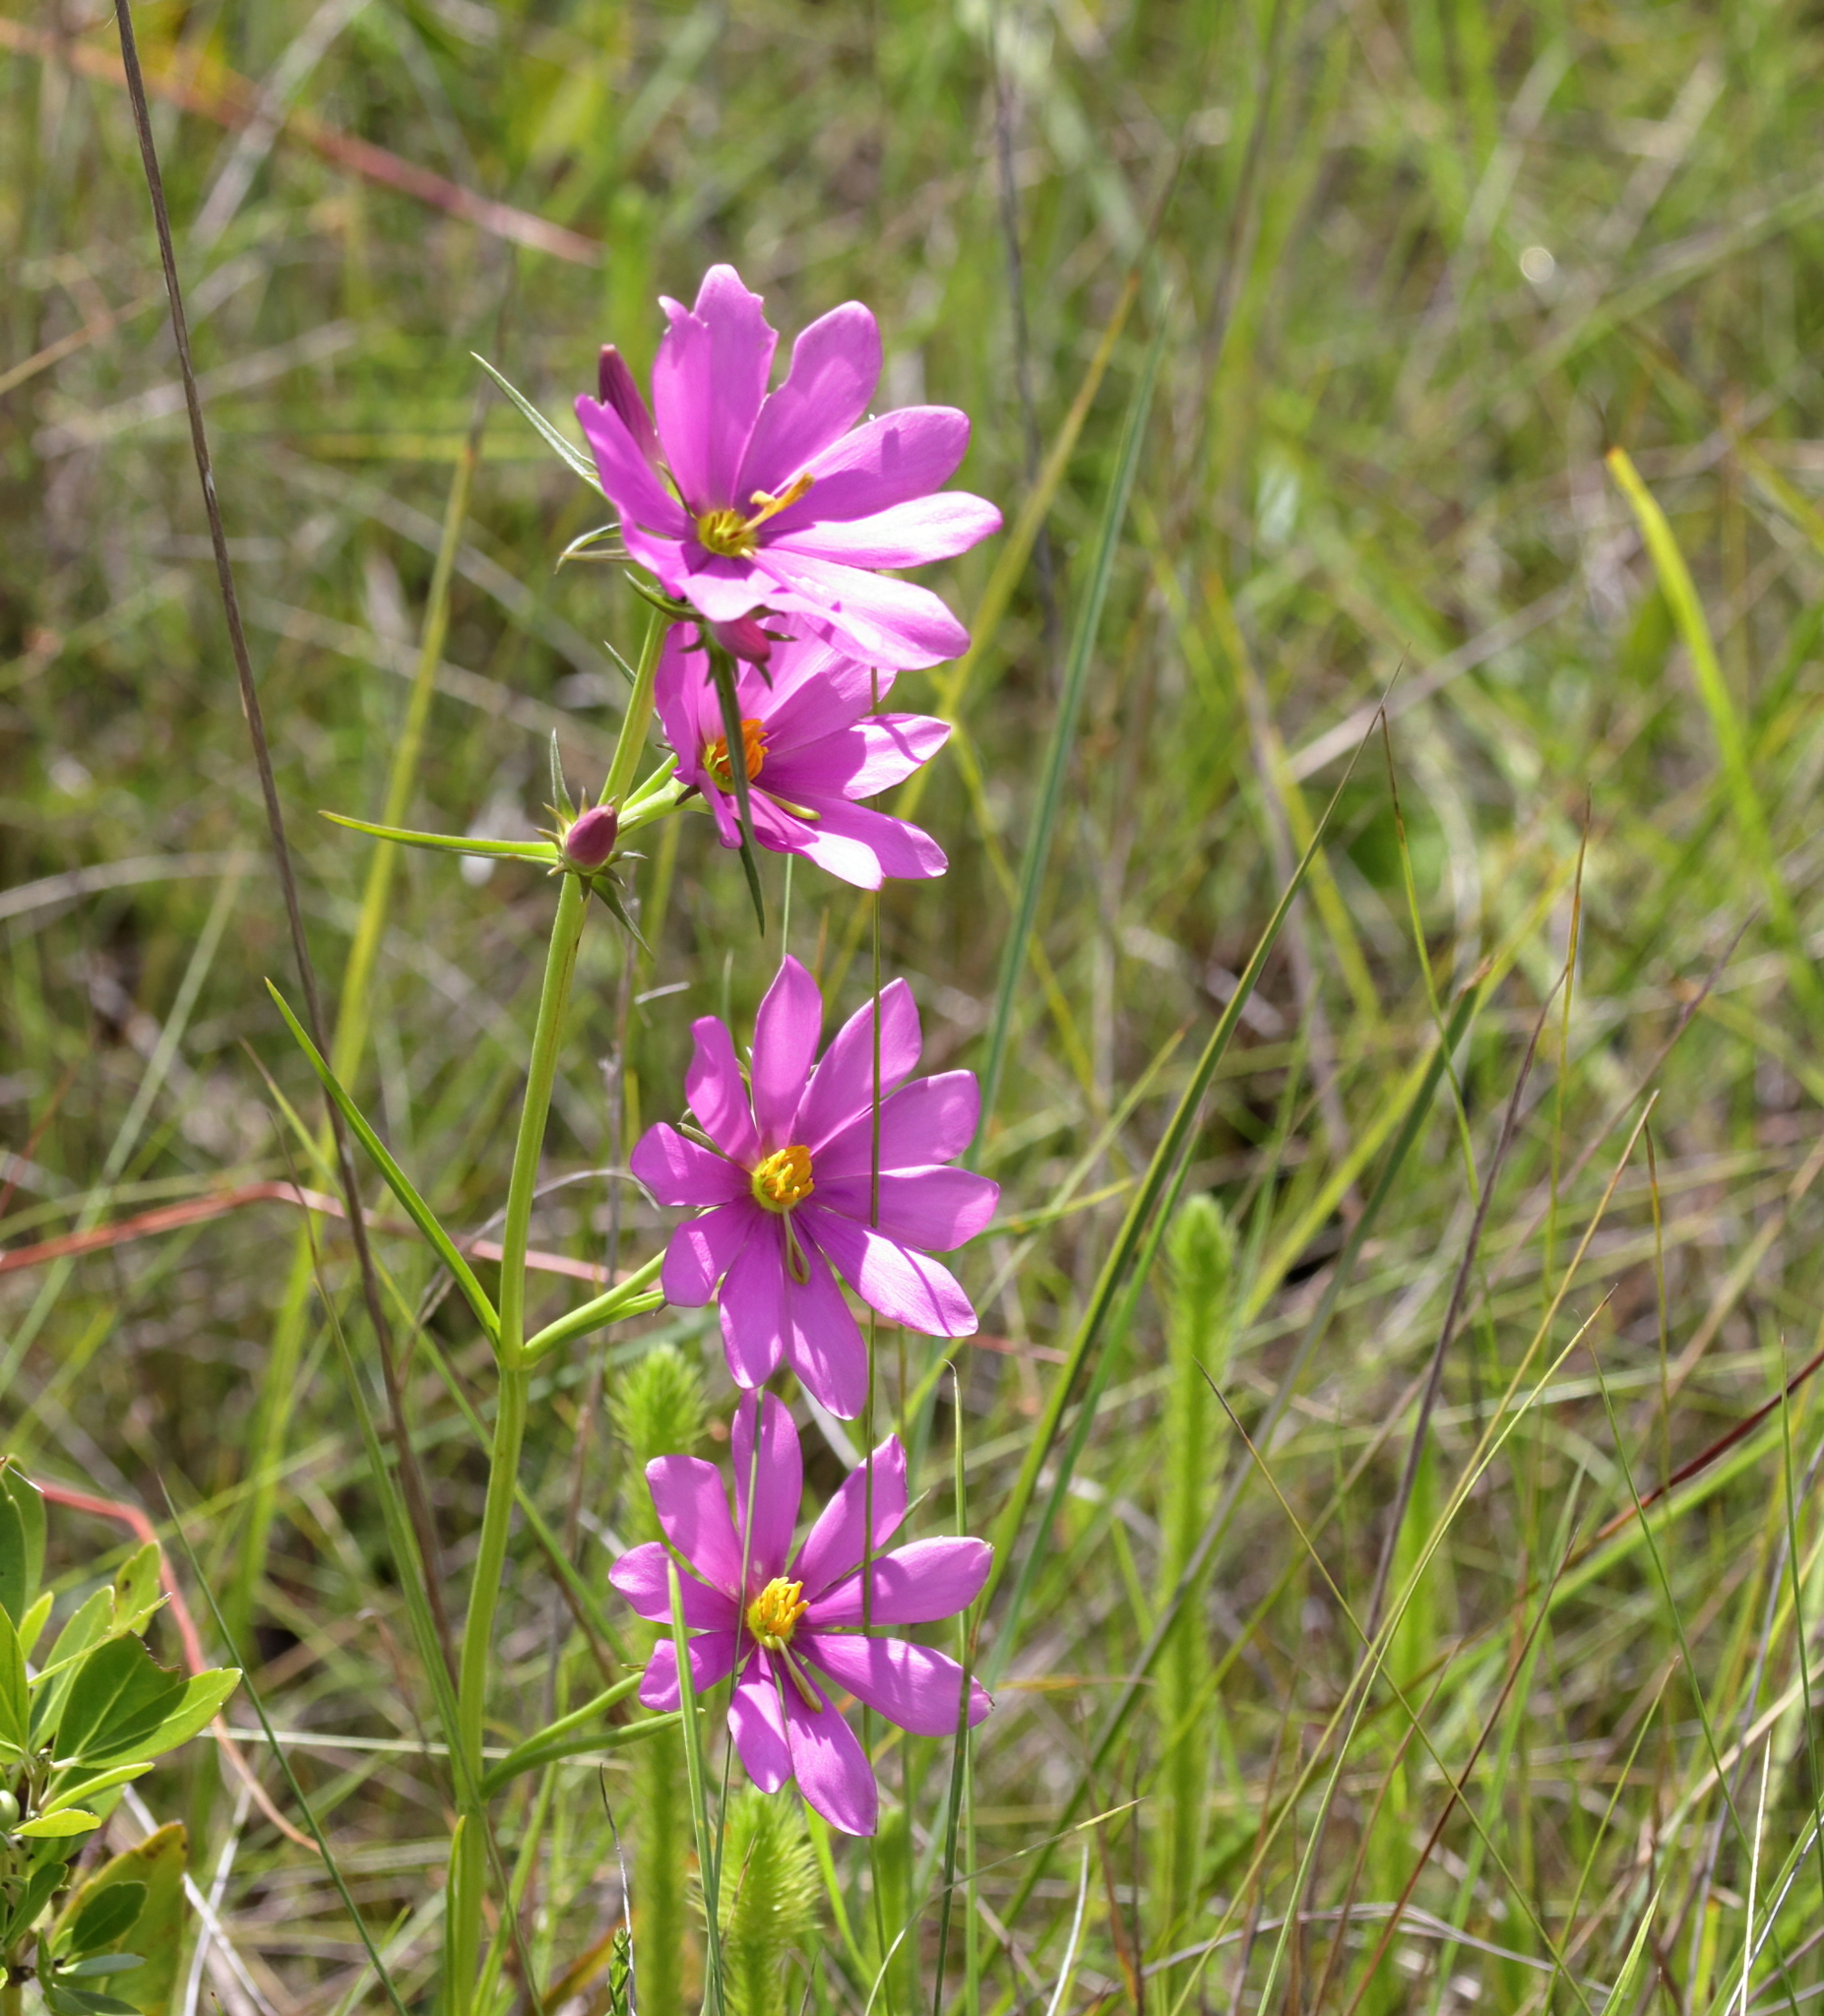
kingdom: Plantae
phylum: Tracheophyta
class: Magnoliopsida
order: Gentianales
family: Gentianaceae
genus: Sabatia
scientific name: Sabatia gentianoides
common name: Pinewoods rose-gentian
